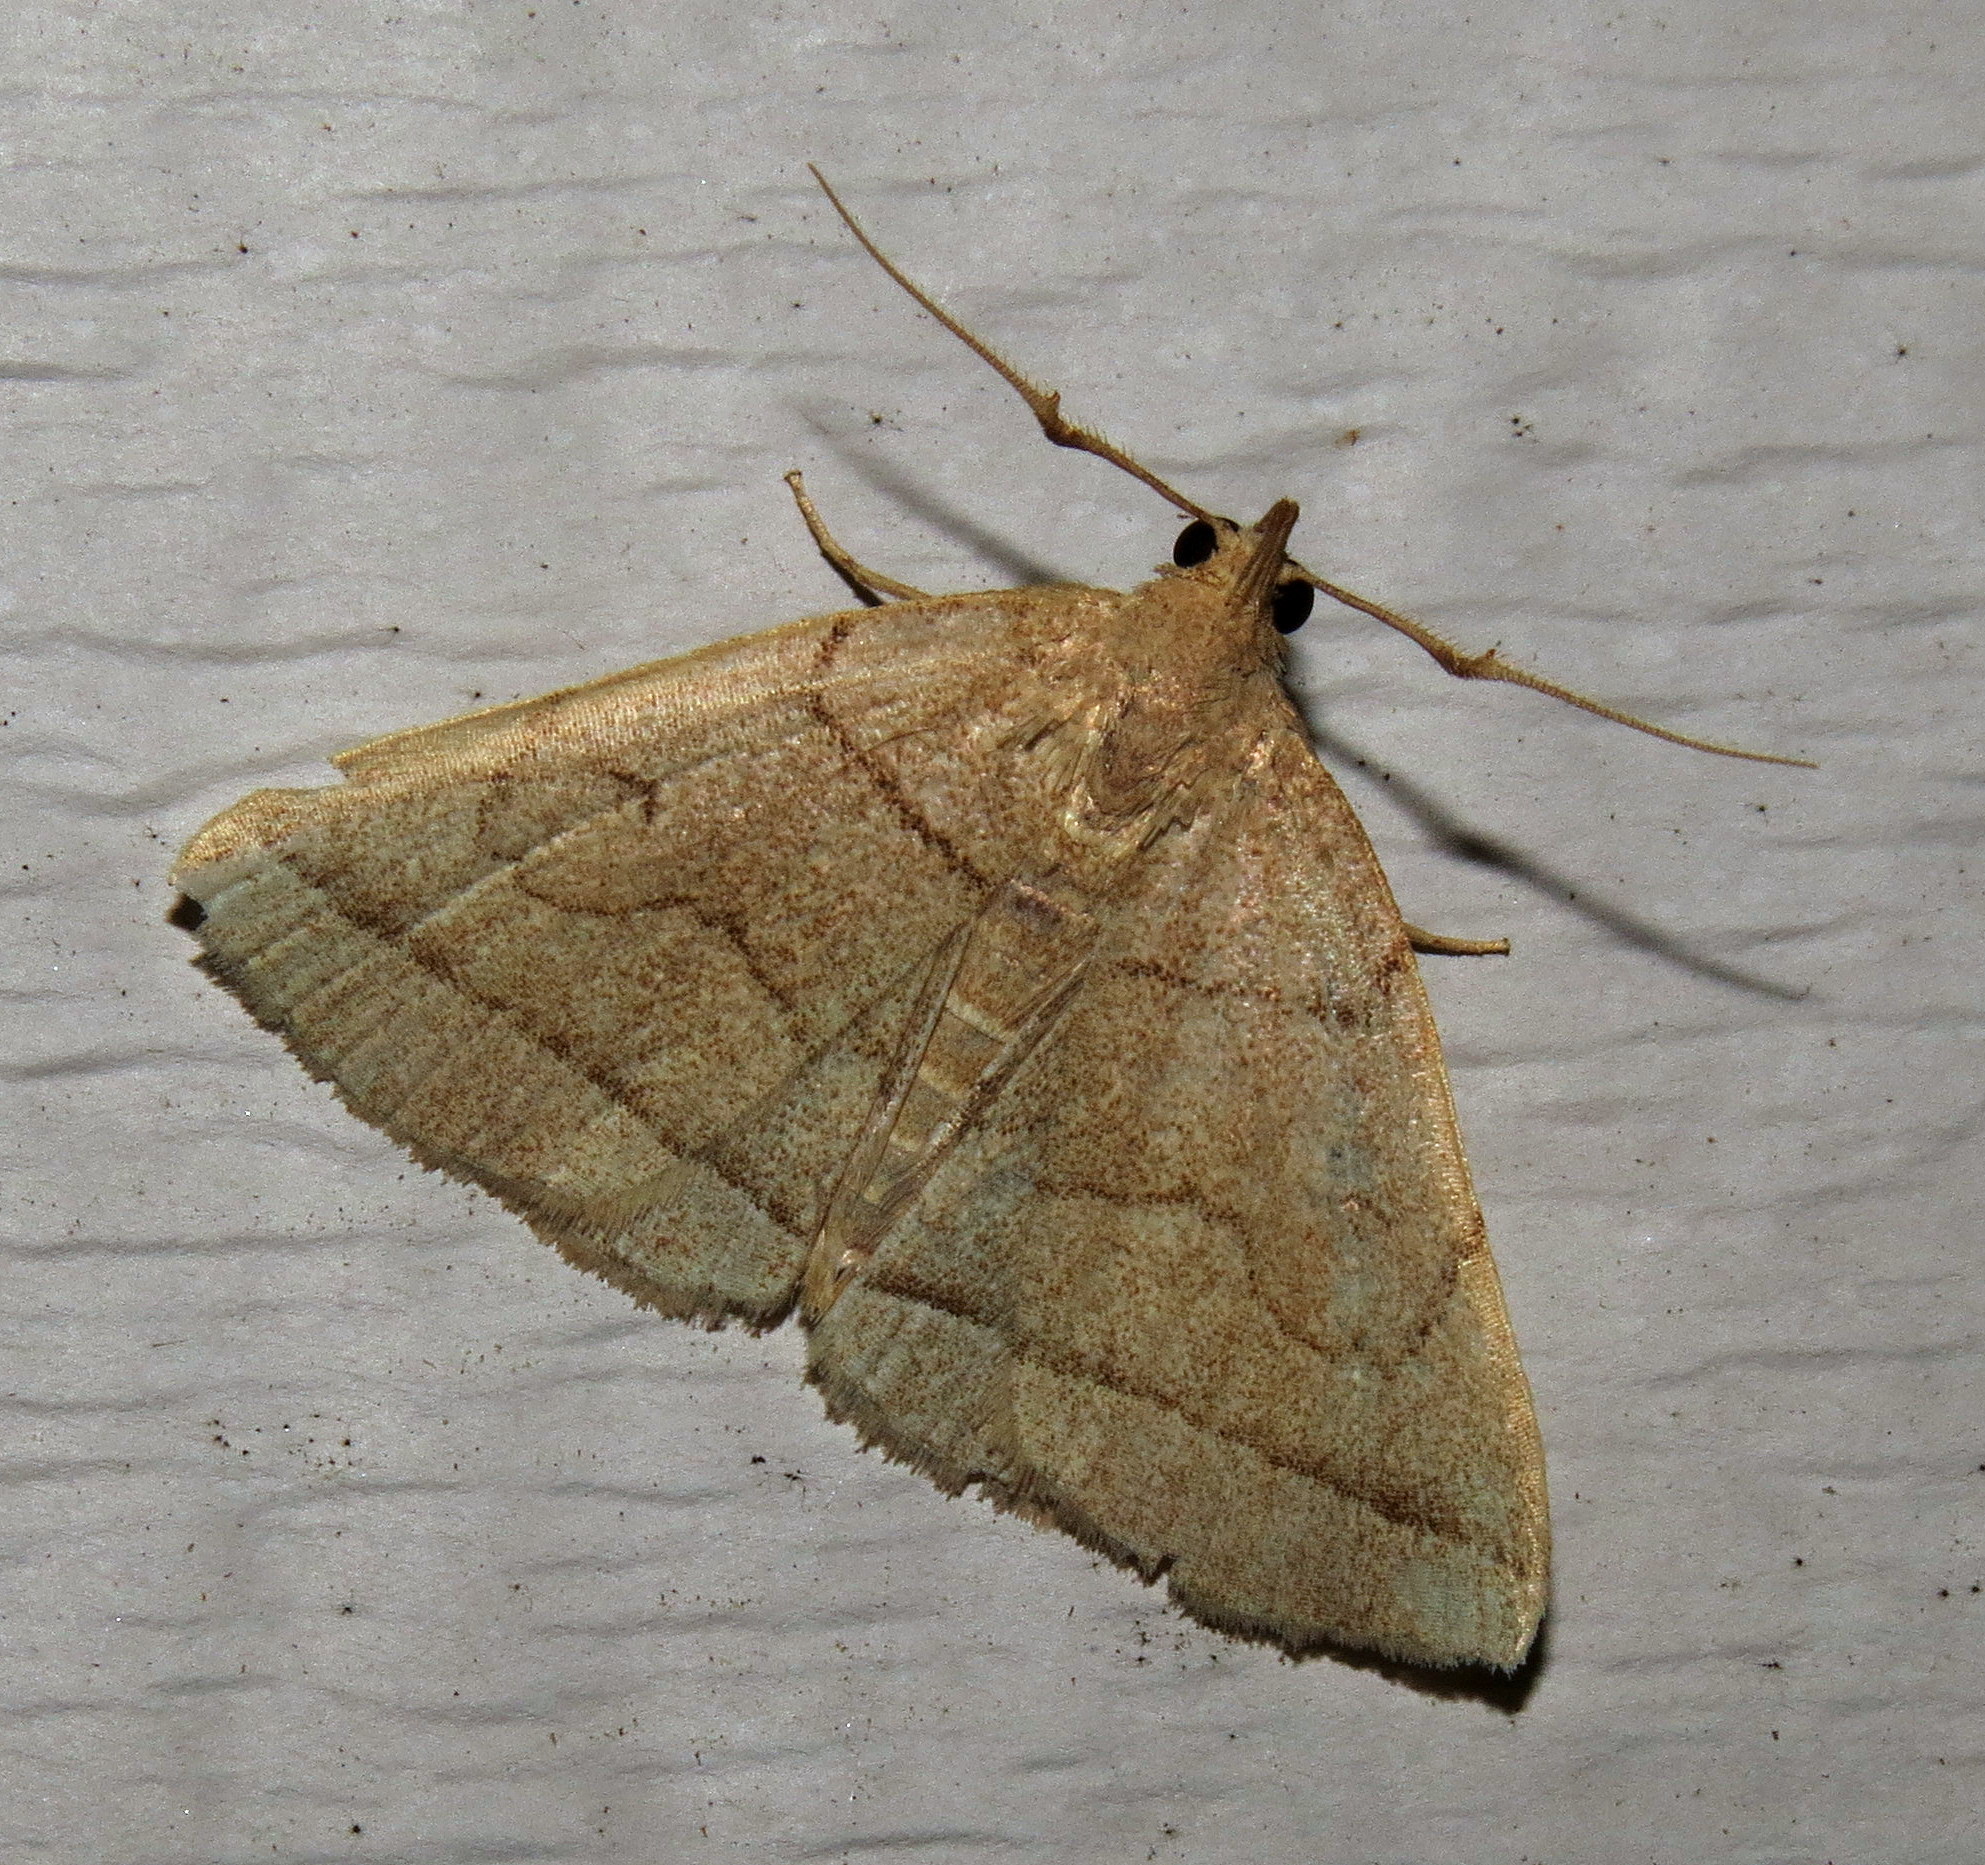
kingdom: Animalia
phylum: Arthropoda
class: Insecta
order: Lepidoptera
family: Erebidae
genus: Zanclognatha
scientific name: Zanclognatha cruralis
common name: Early fan-foot
